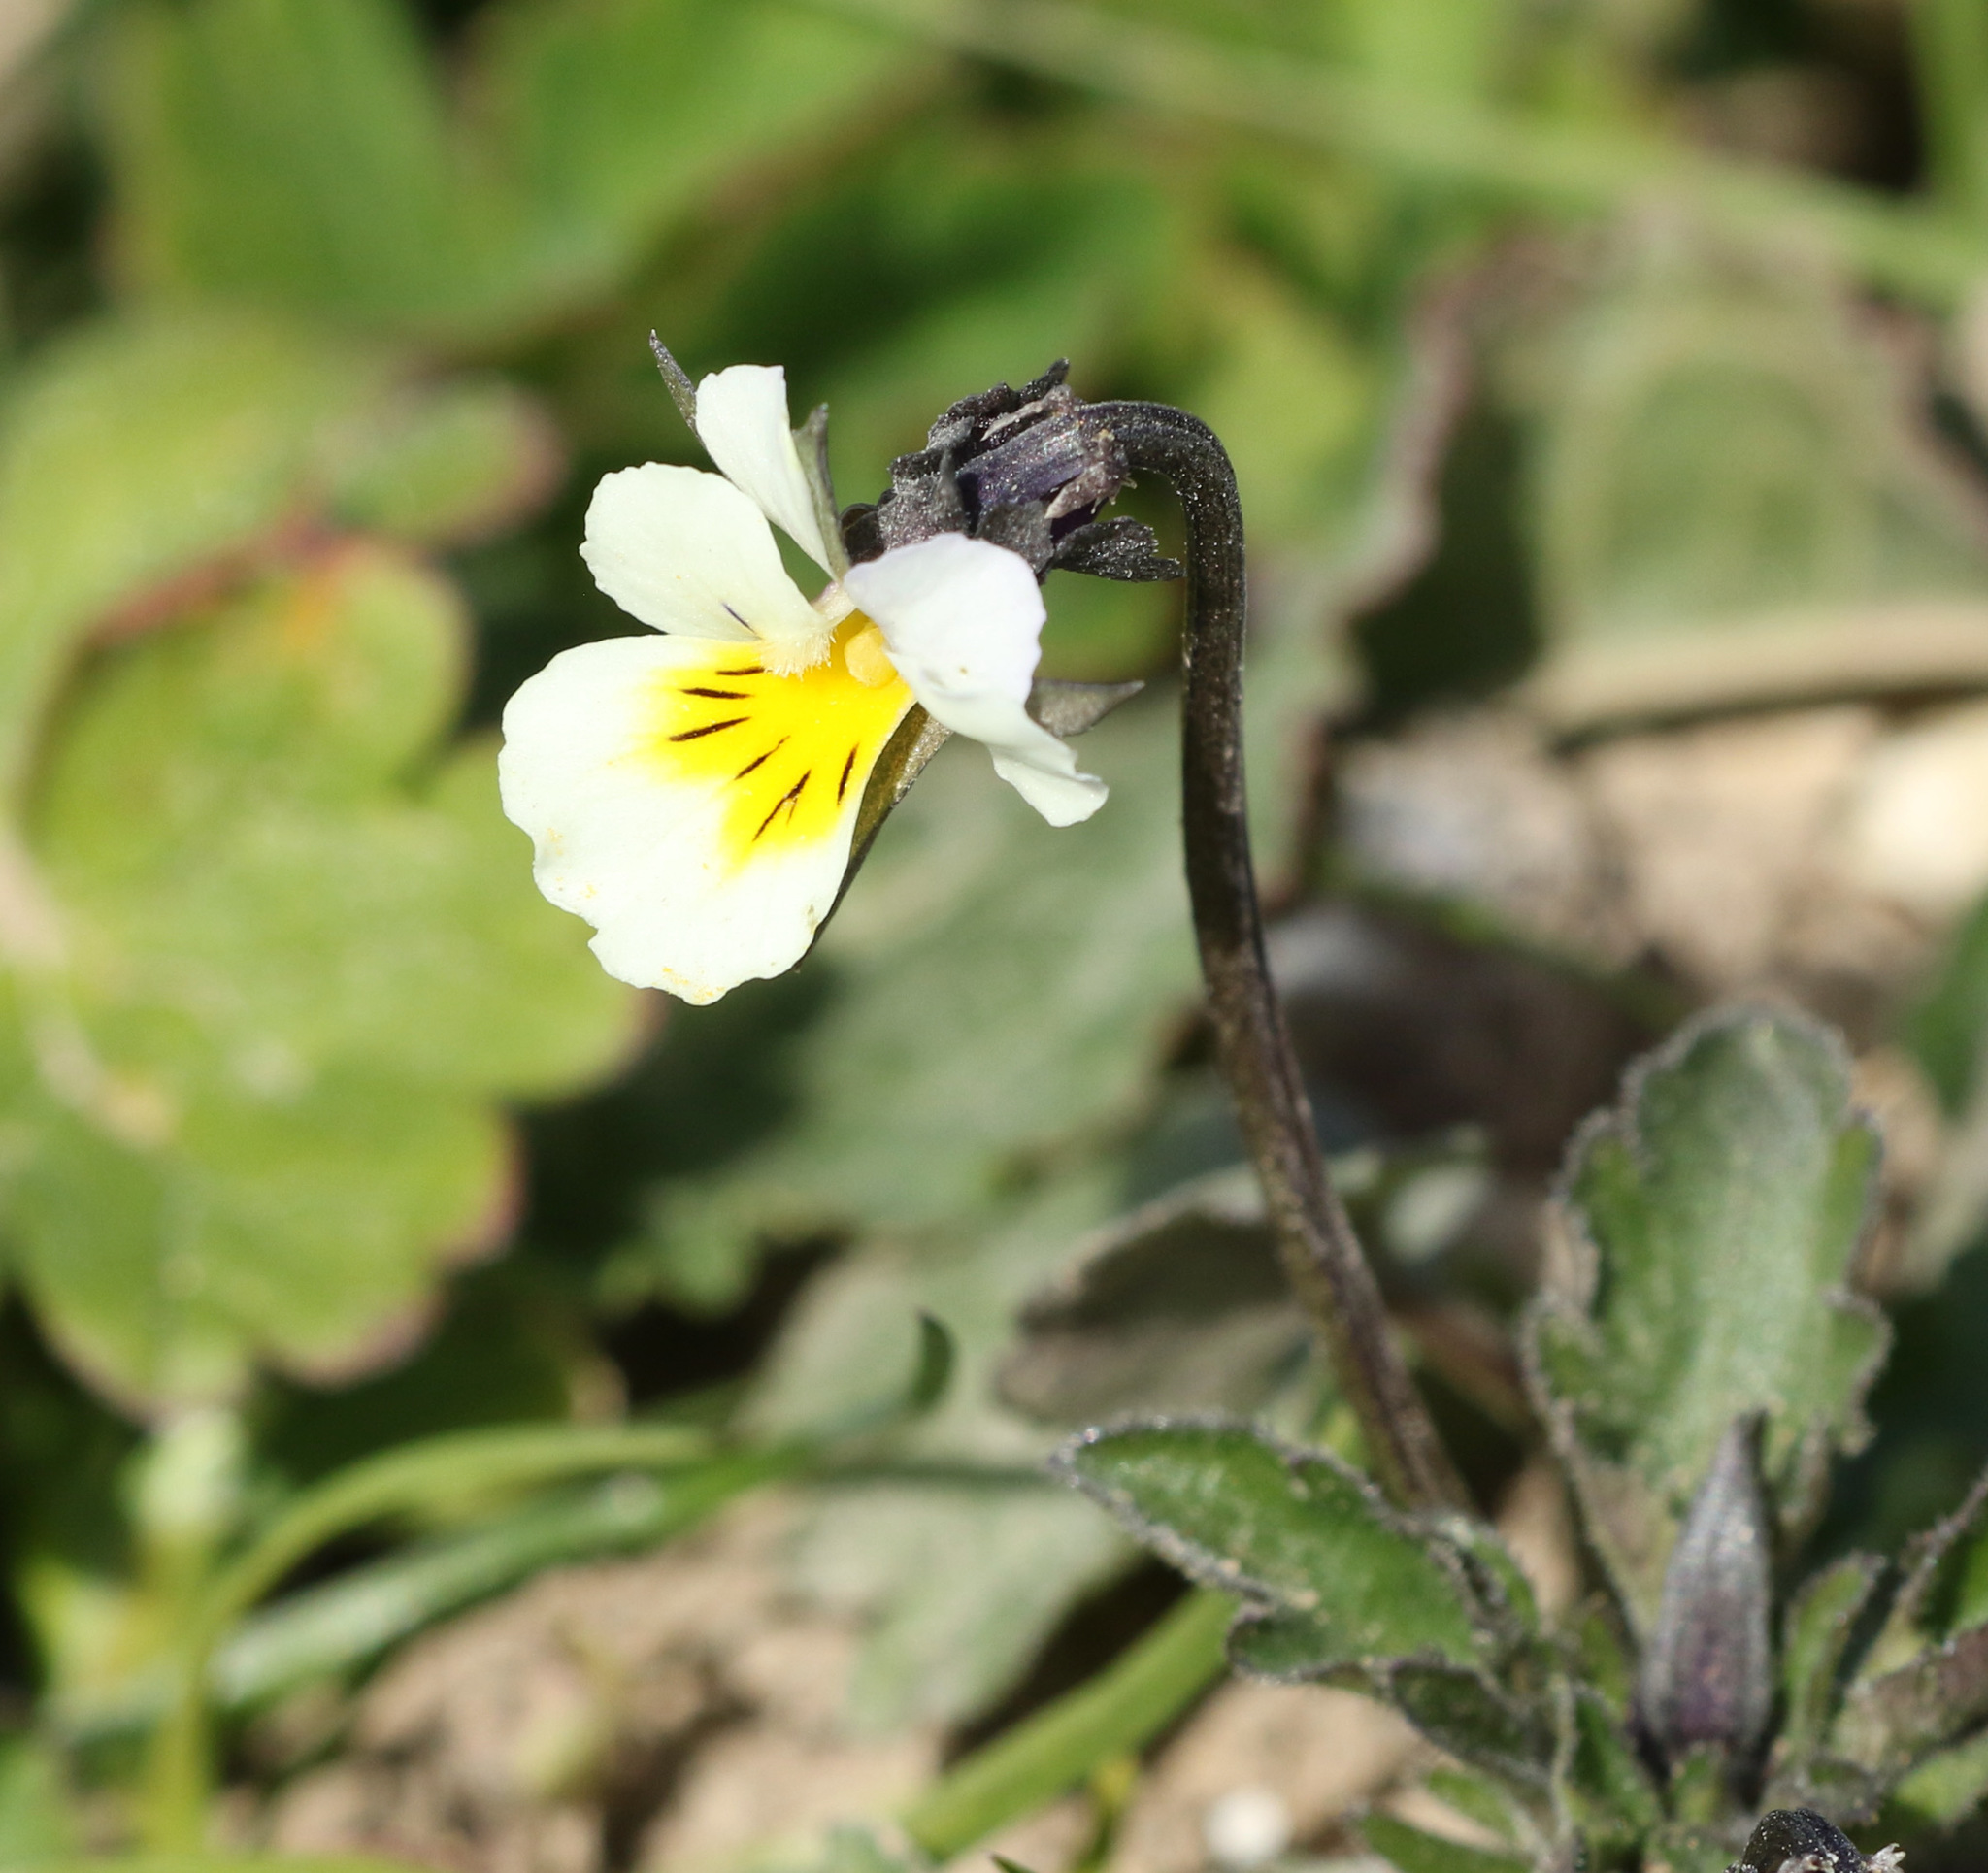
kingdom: Plantae
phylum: Tracheophyta
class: Magnoliopsida
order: Malpighiales
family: Violaceae
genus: Viola
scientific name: Viola arvensis
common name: Field pansy
